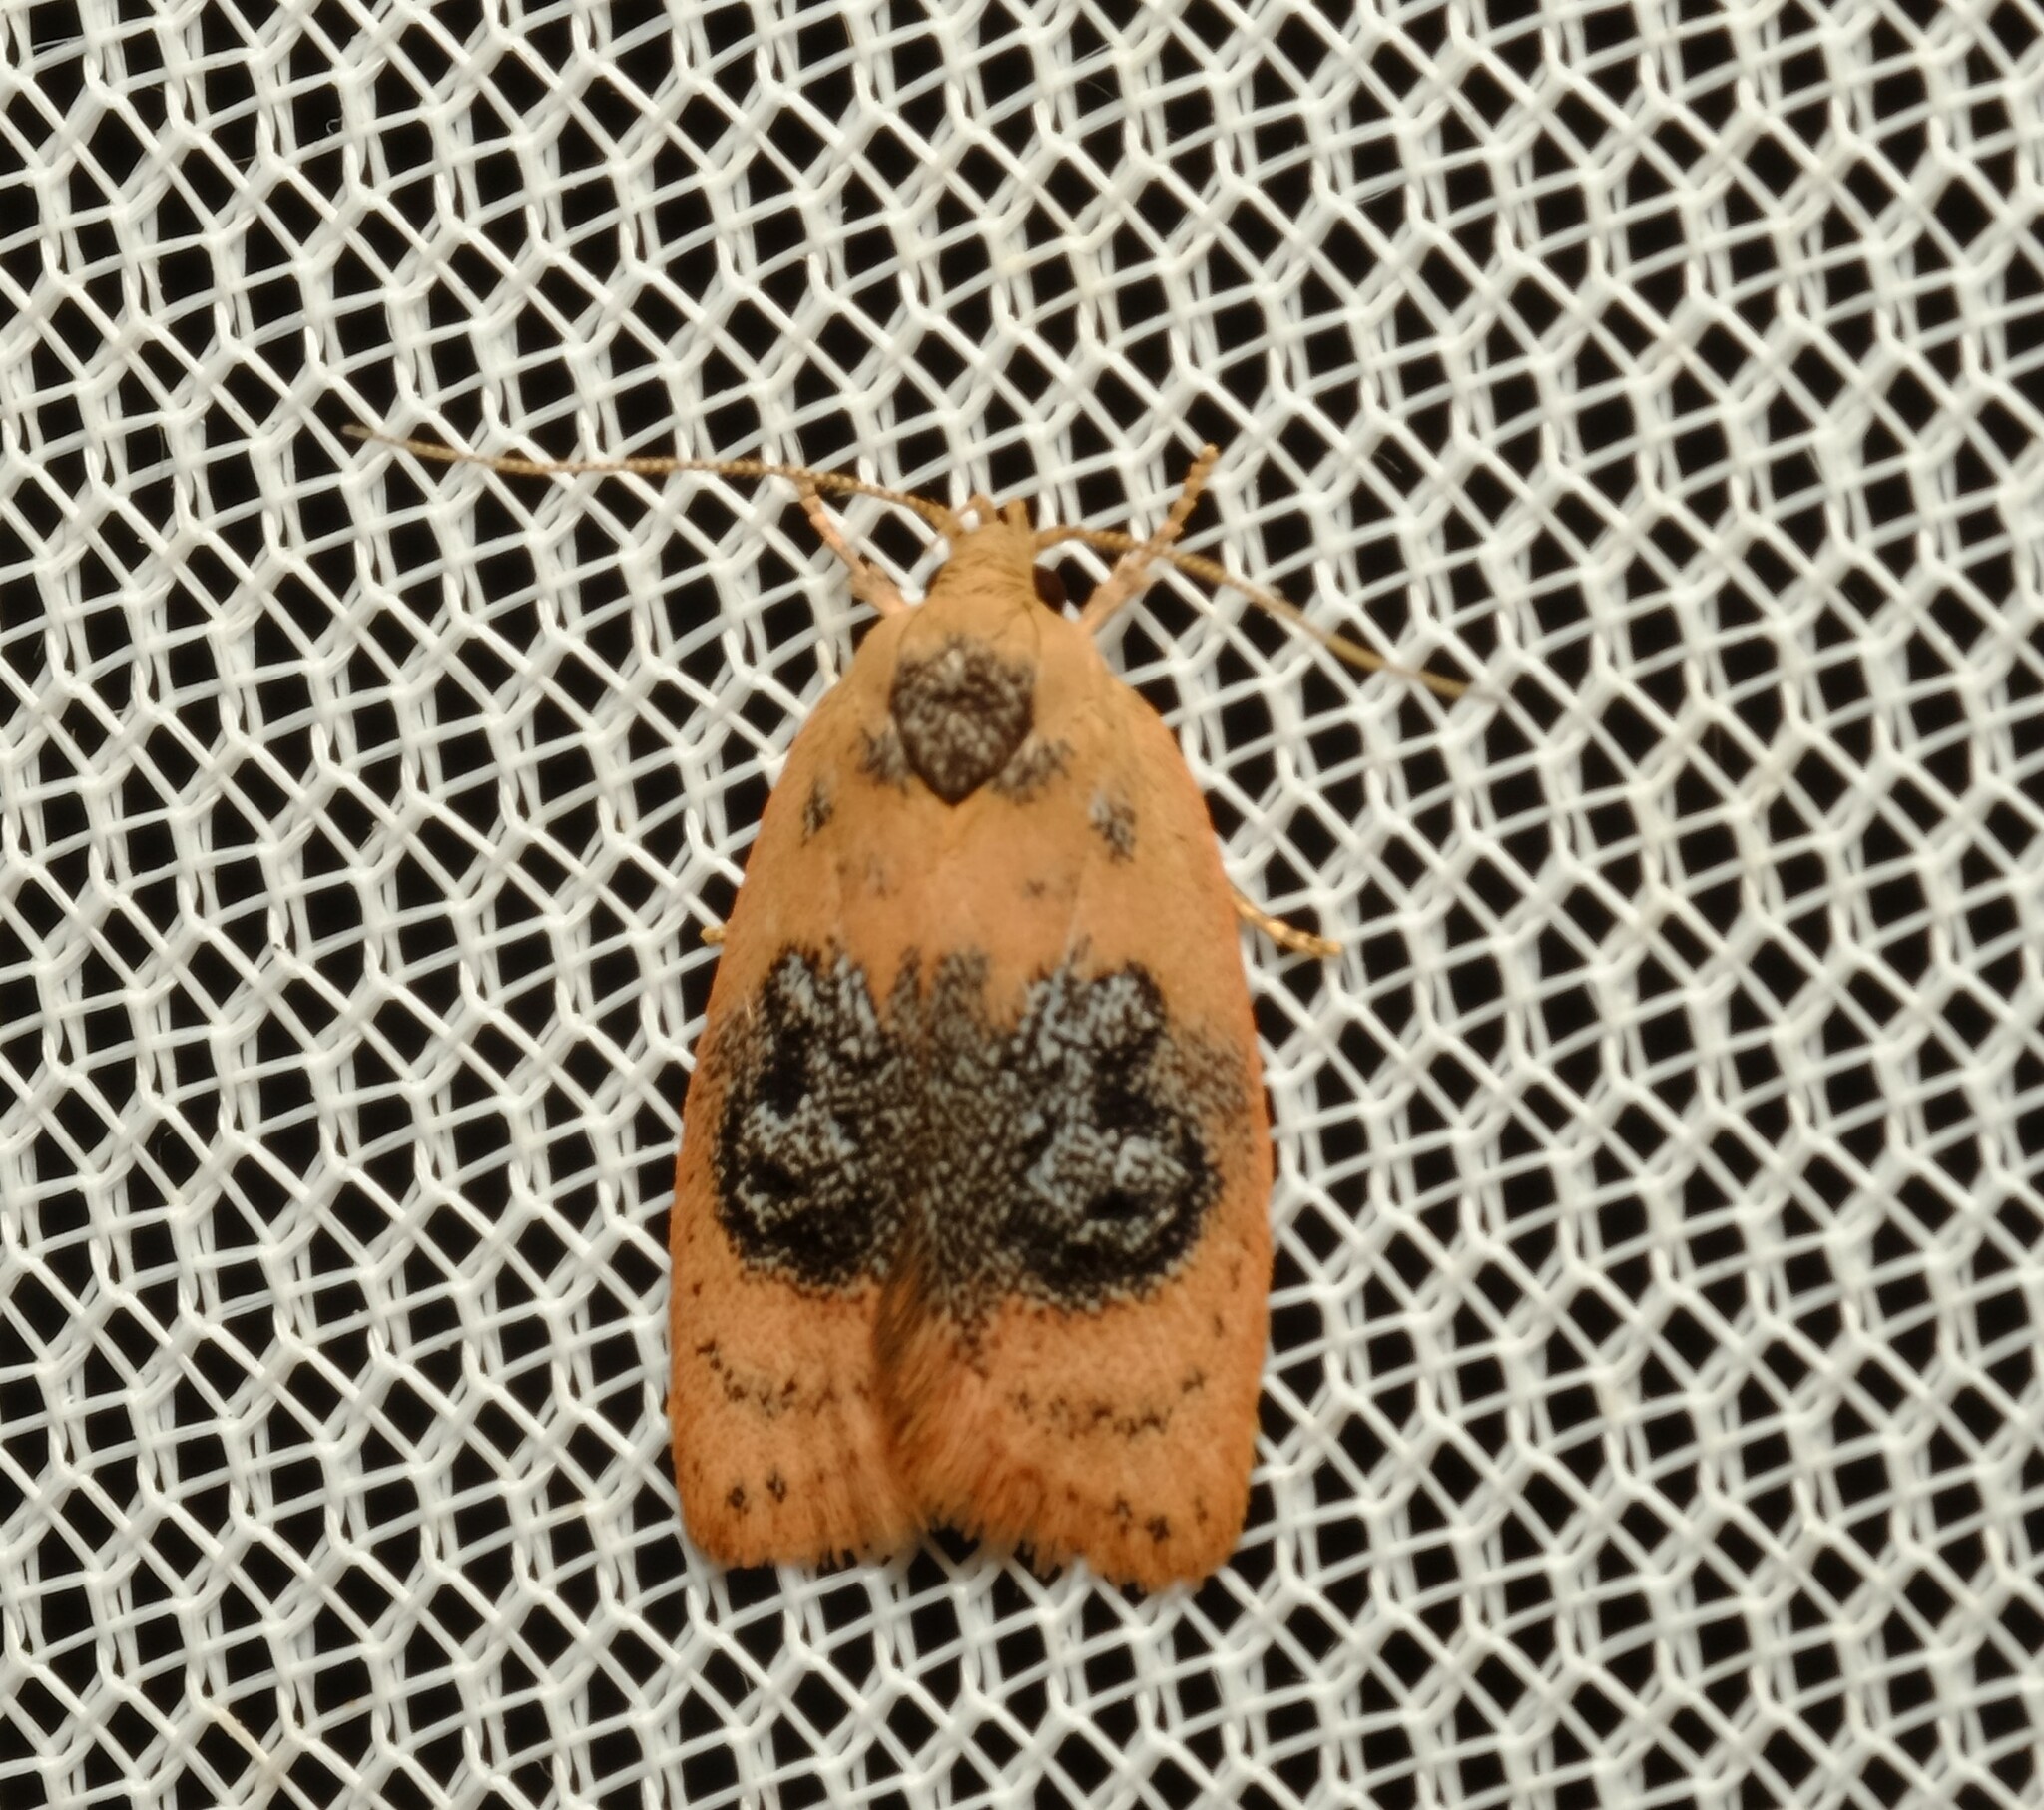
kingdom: Animalia
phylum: Arthropoda
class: Insecta
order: Lepidoptera
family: Oecophoridae
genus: Garrha
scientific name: Garrha ocellifera
